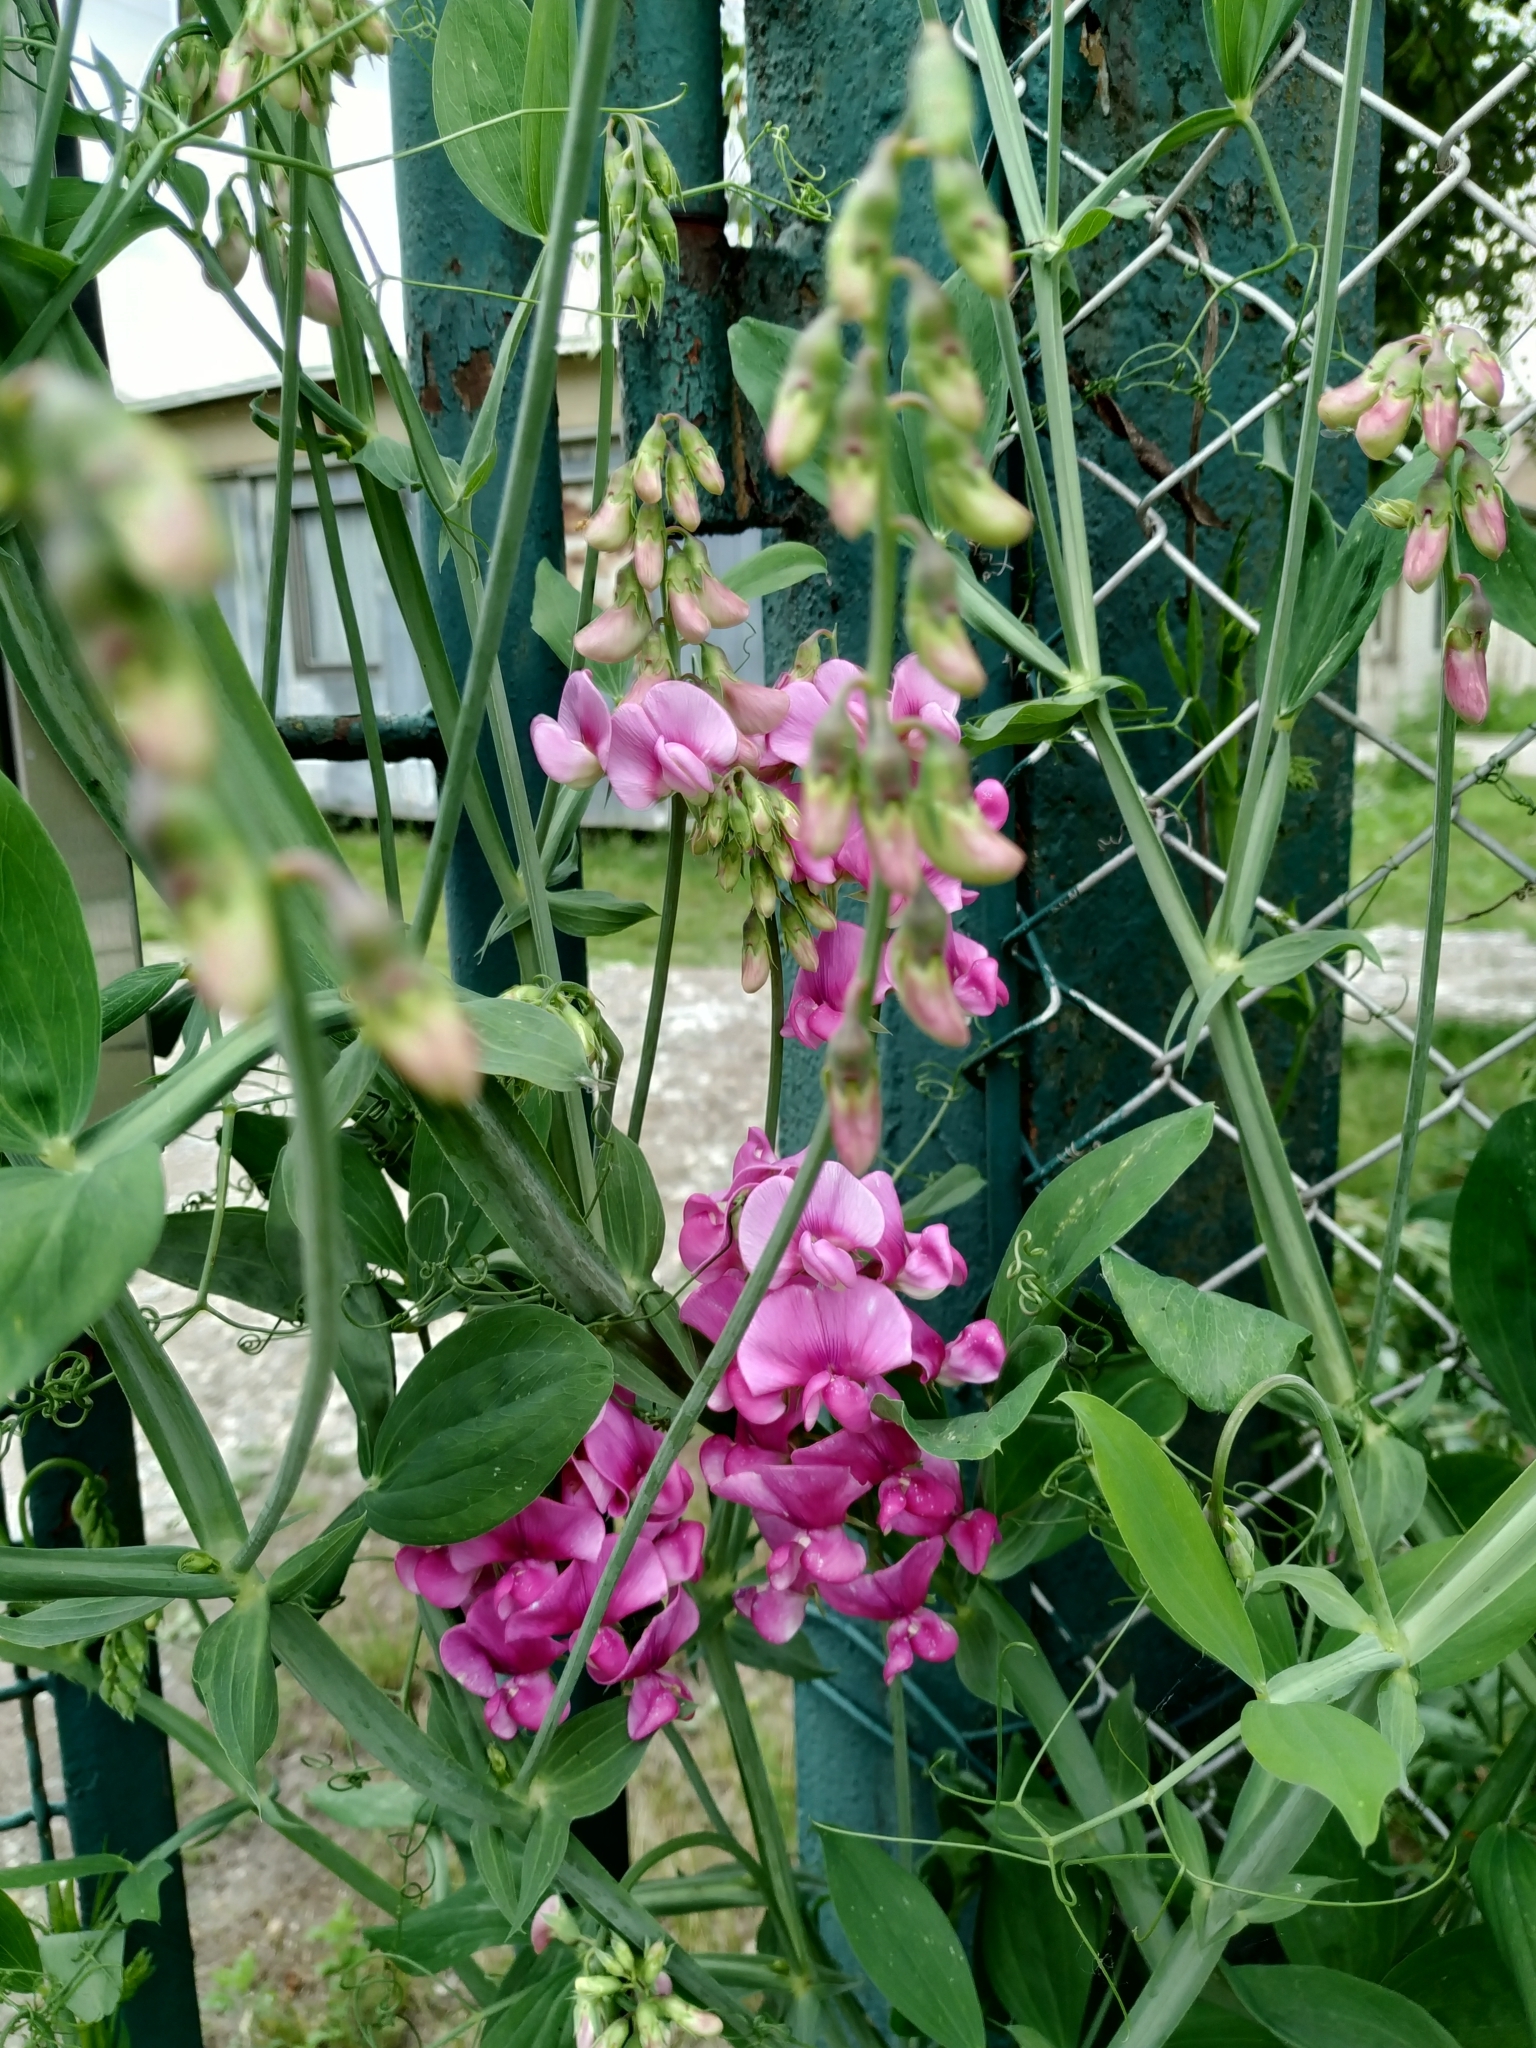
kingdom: Plantae
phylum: Tracheophyta
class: Magnoliopsida
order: Fabales
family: Fabaceae
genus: Lathyrus
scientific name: Lathyrus latifolius
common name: Perennial pea
